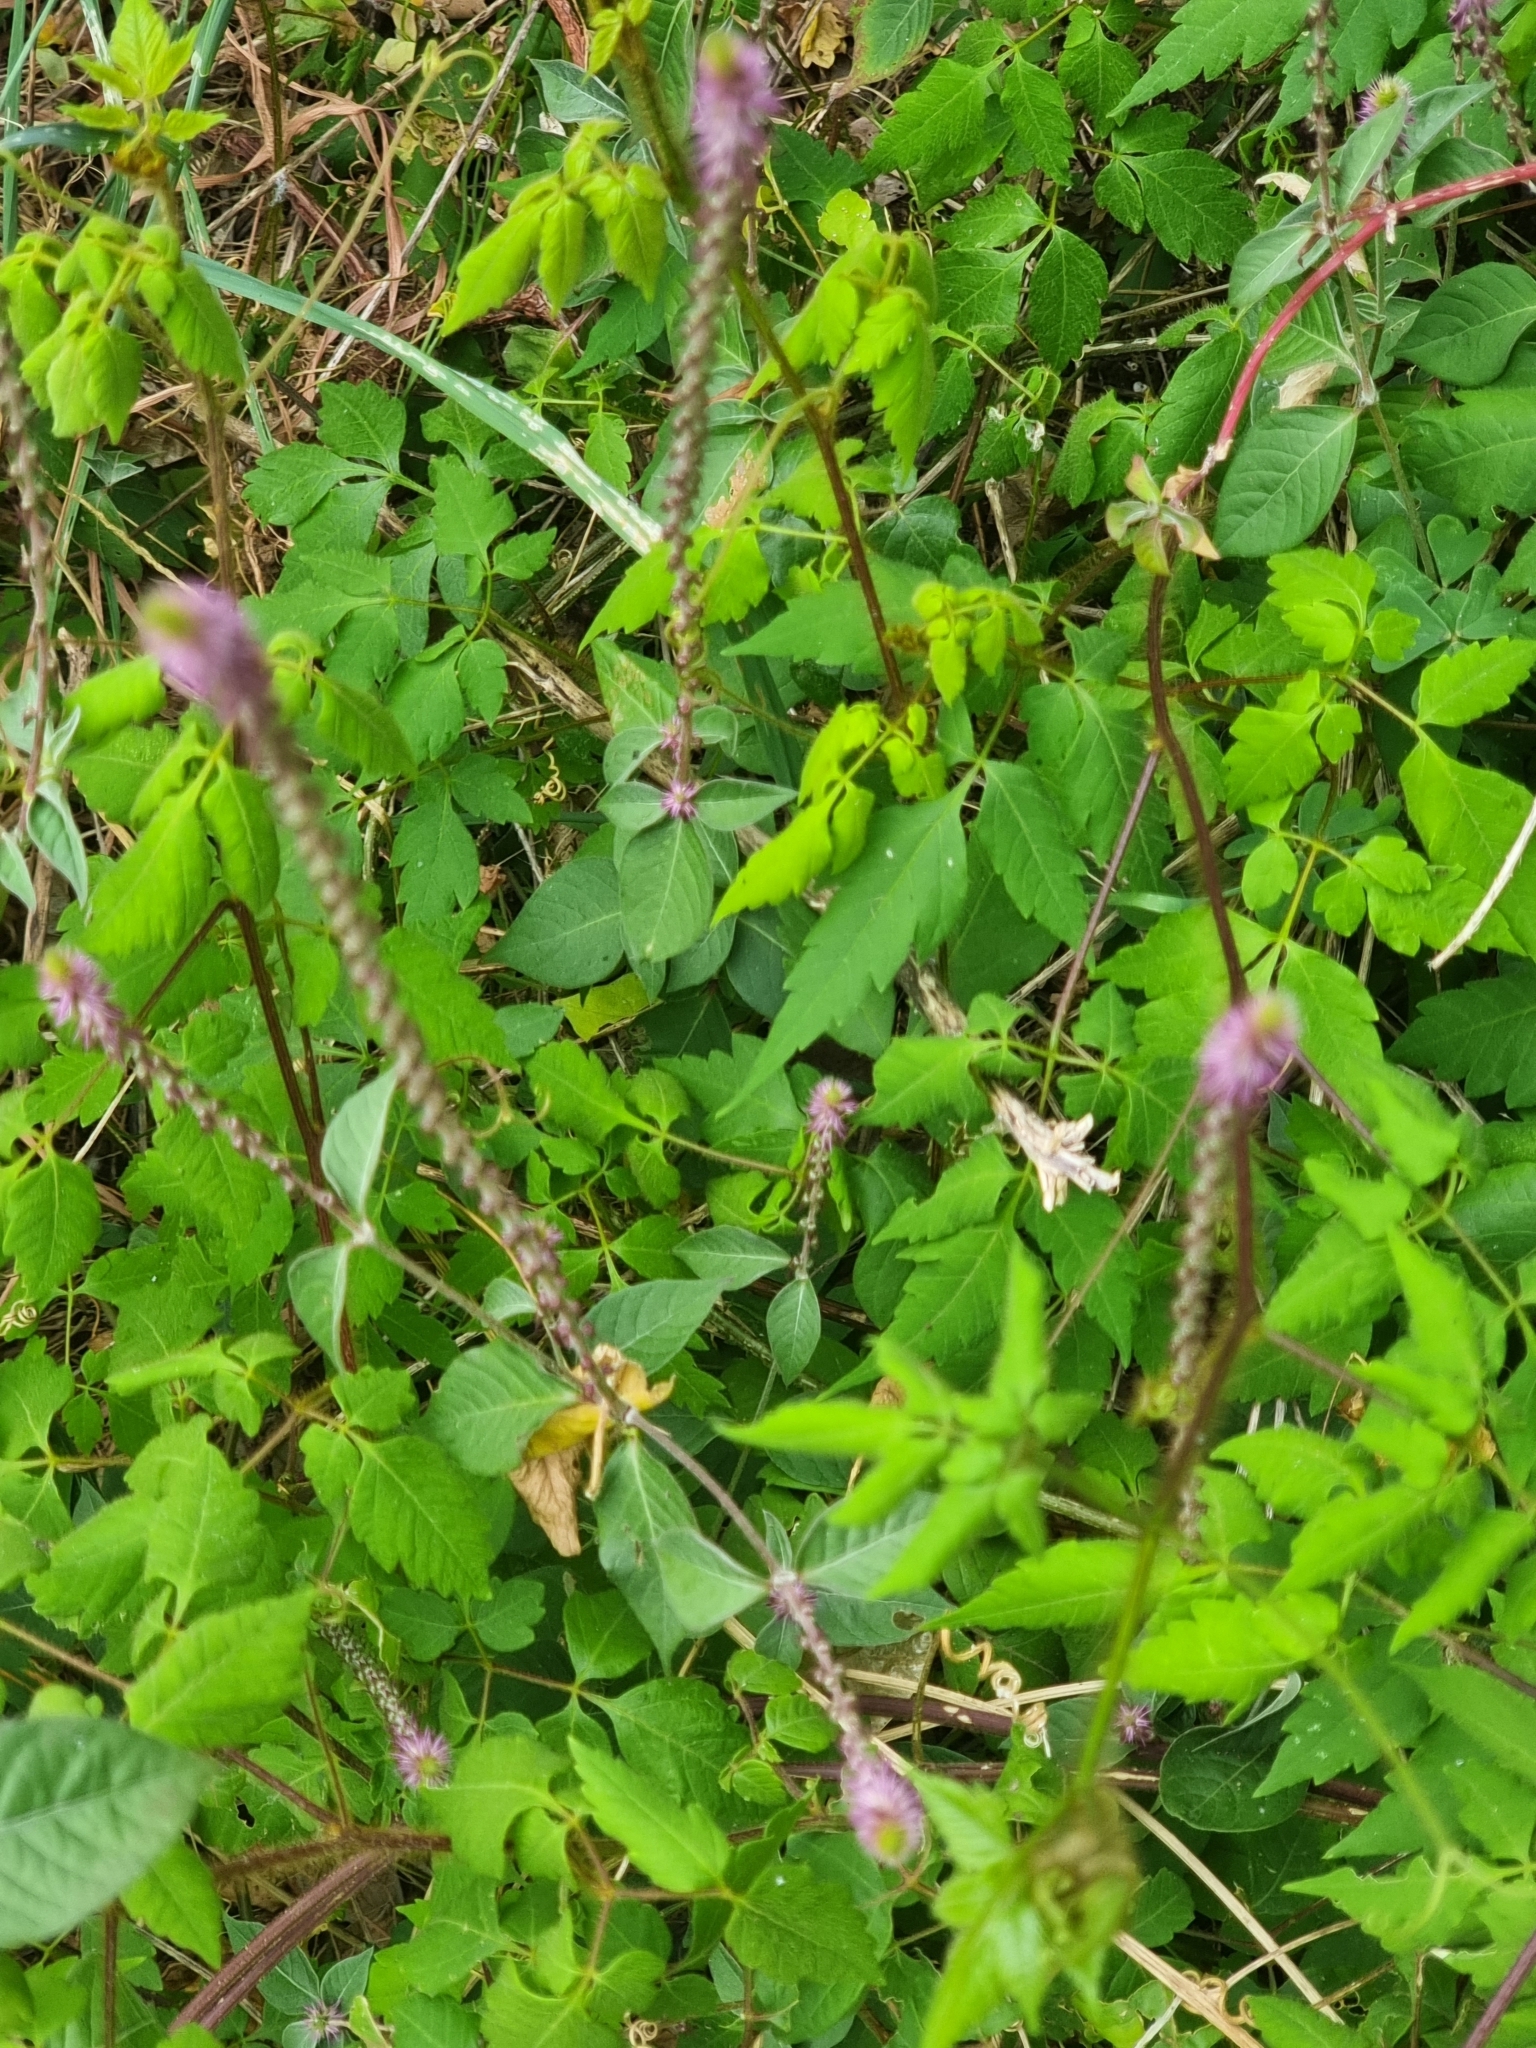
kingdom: Plantae
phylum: Tracheophyta
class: Magnoliopsida
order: Caryophyllales
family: Amaranthaceae
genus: Achyranthes
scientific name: Achyranthes aspera
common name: Devil's horsewhip
